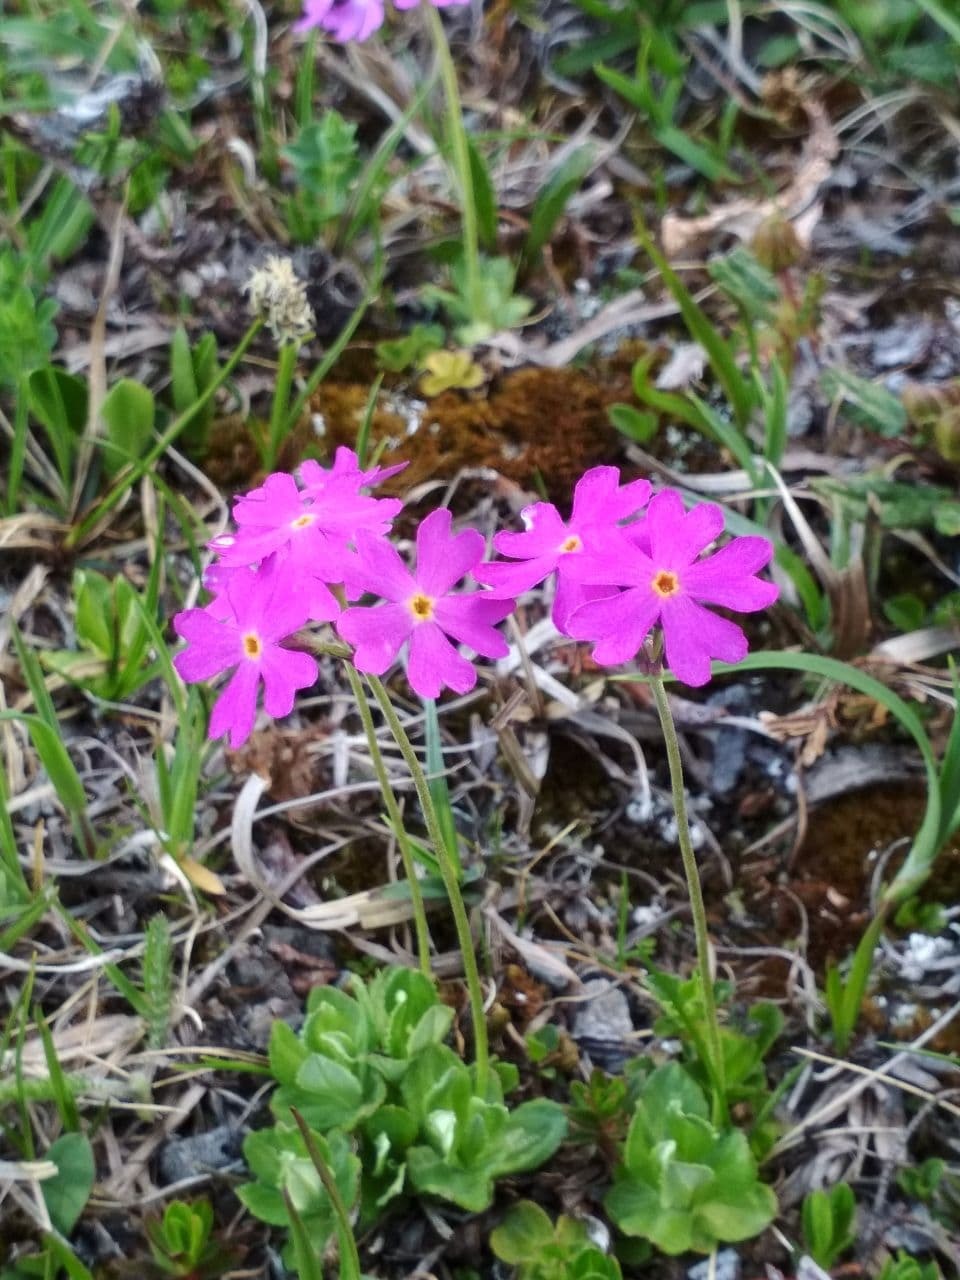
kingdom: Plantae
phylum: Tracheophyta
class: Magnoliopsida
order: Ericales
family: Primulaceae
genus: Primula
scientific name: Primula farinosa
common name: Bird's-eye primrose
